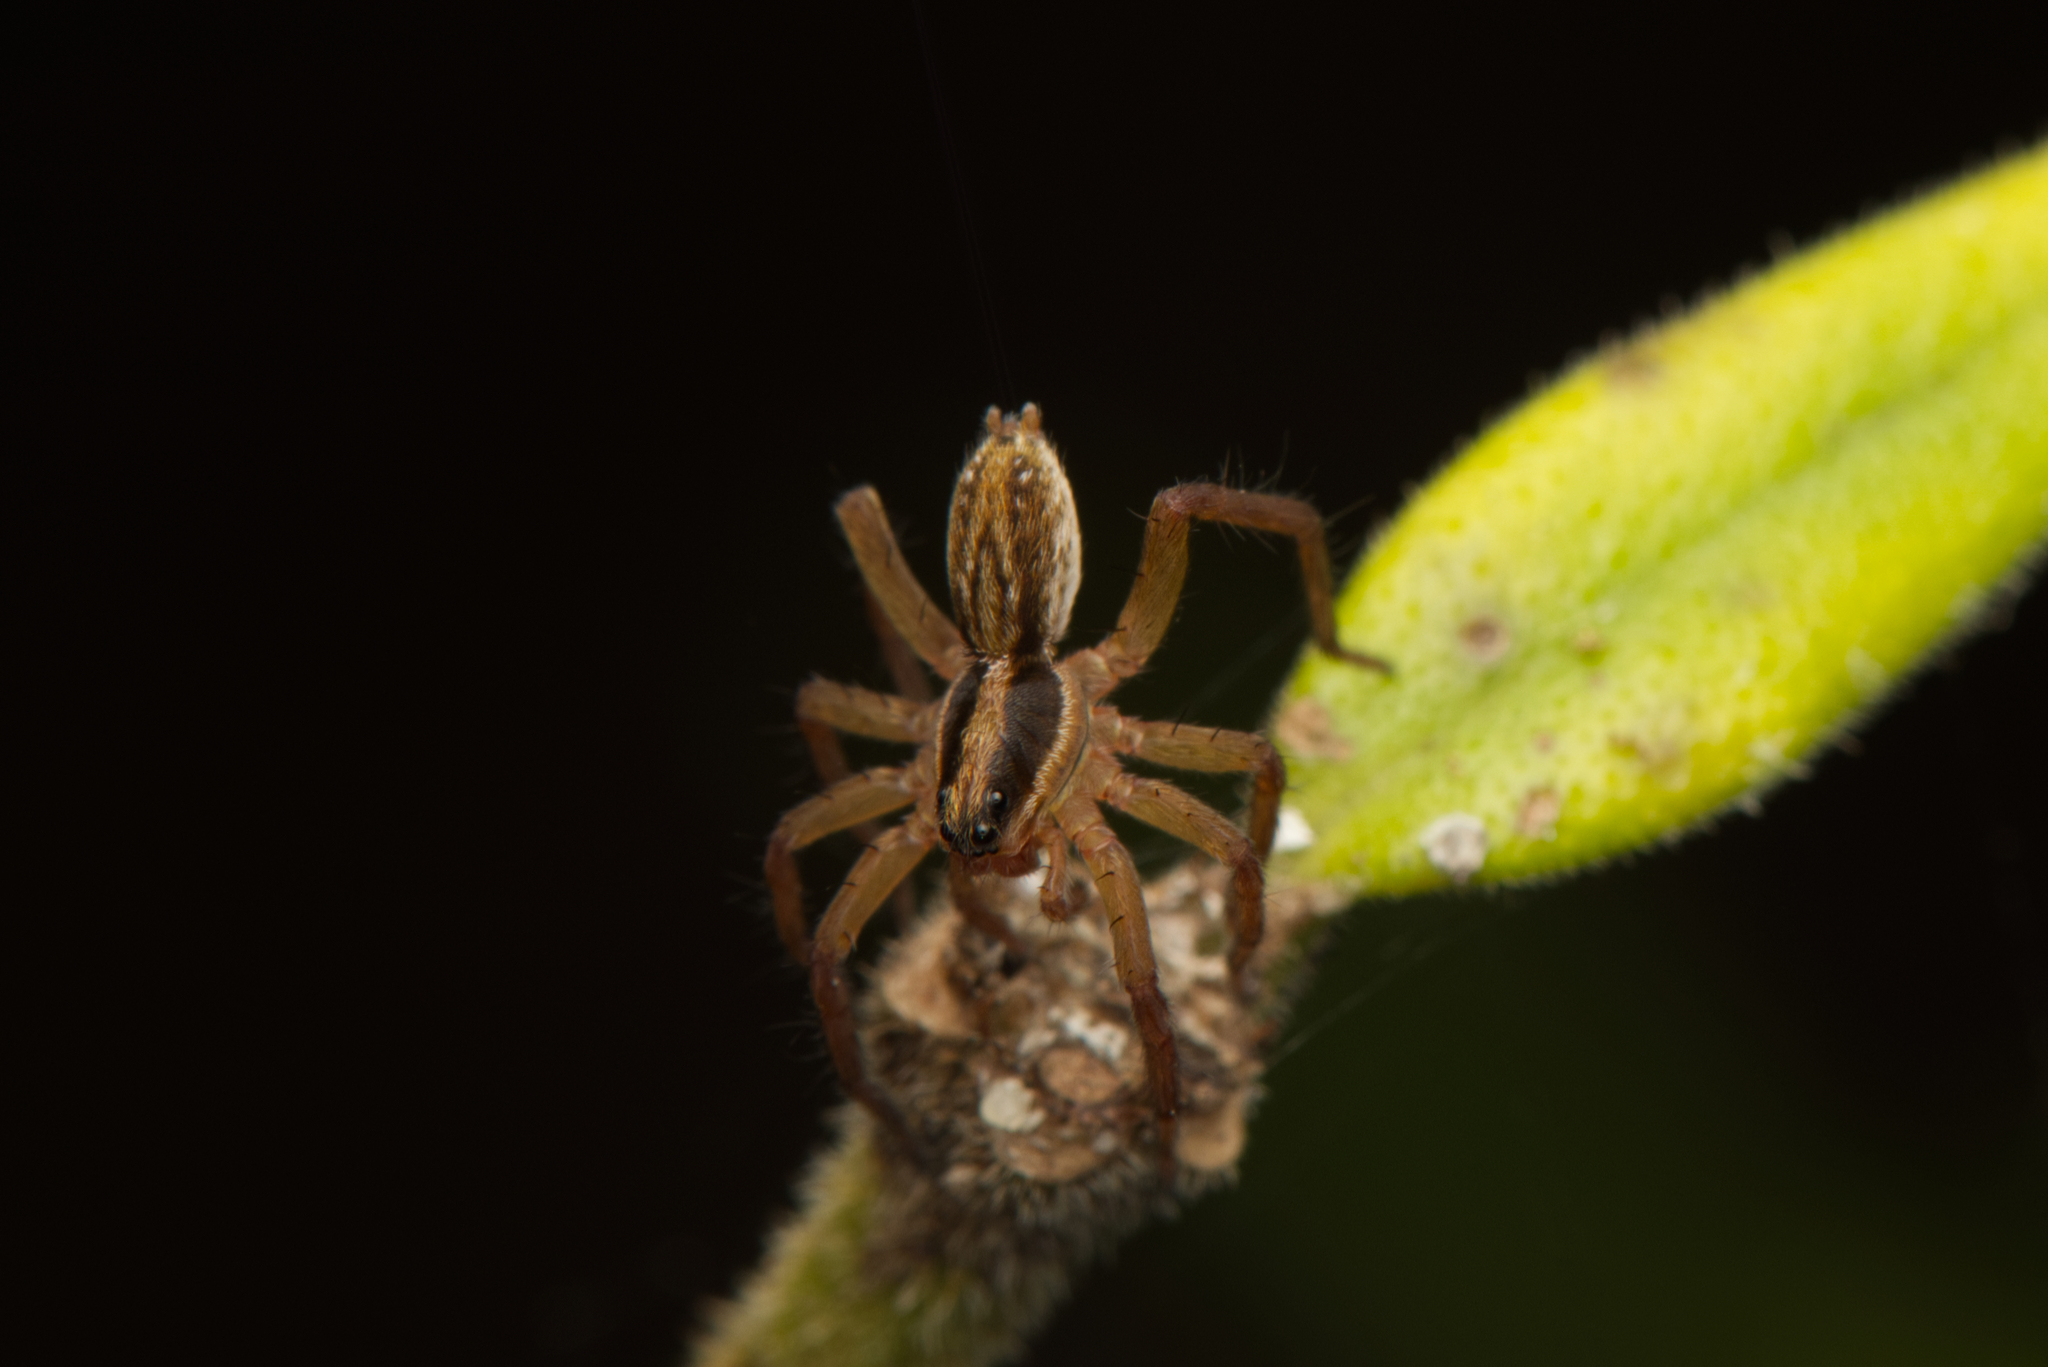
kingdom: Animalia
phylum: Arthropoda
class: Arachnida
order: Araneae
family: Lycosidae
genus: Venatrix
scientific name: Venatrix furcillata
